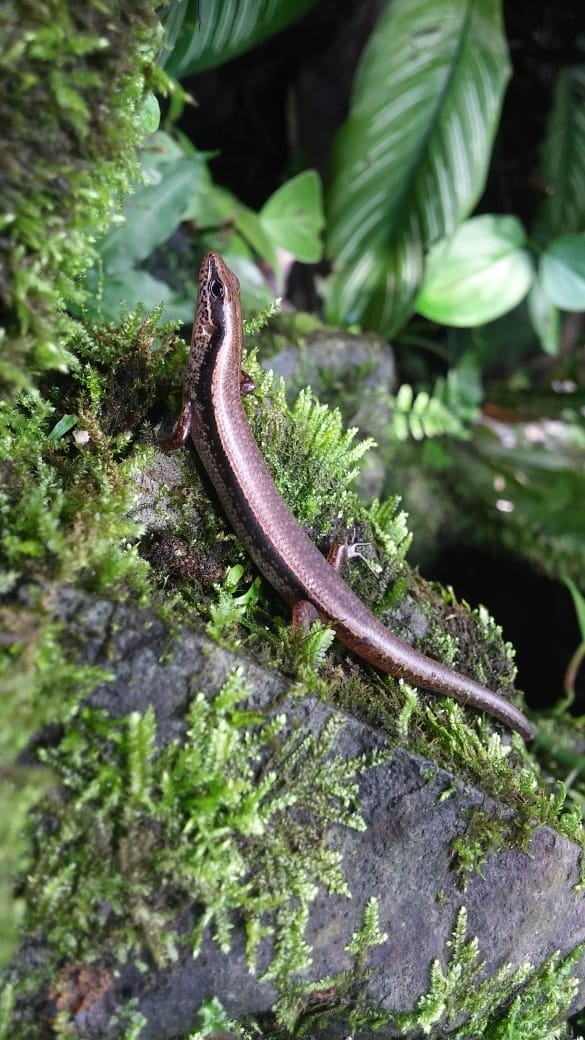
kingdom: Animalia
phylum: Chordata
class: Squamata
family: Scincidae
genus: Scincella
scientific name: Scincella silvicola
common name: Taylor’s ground skink
